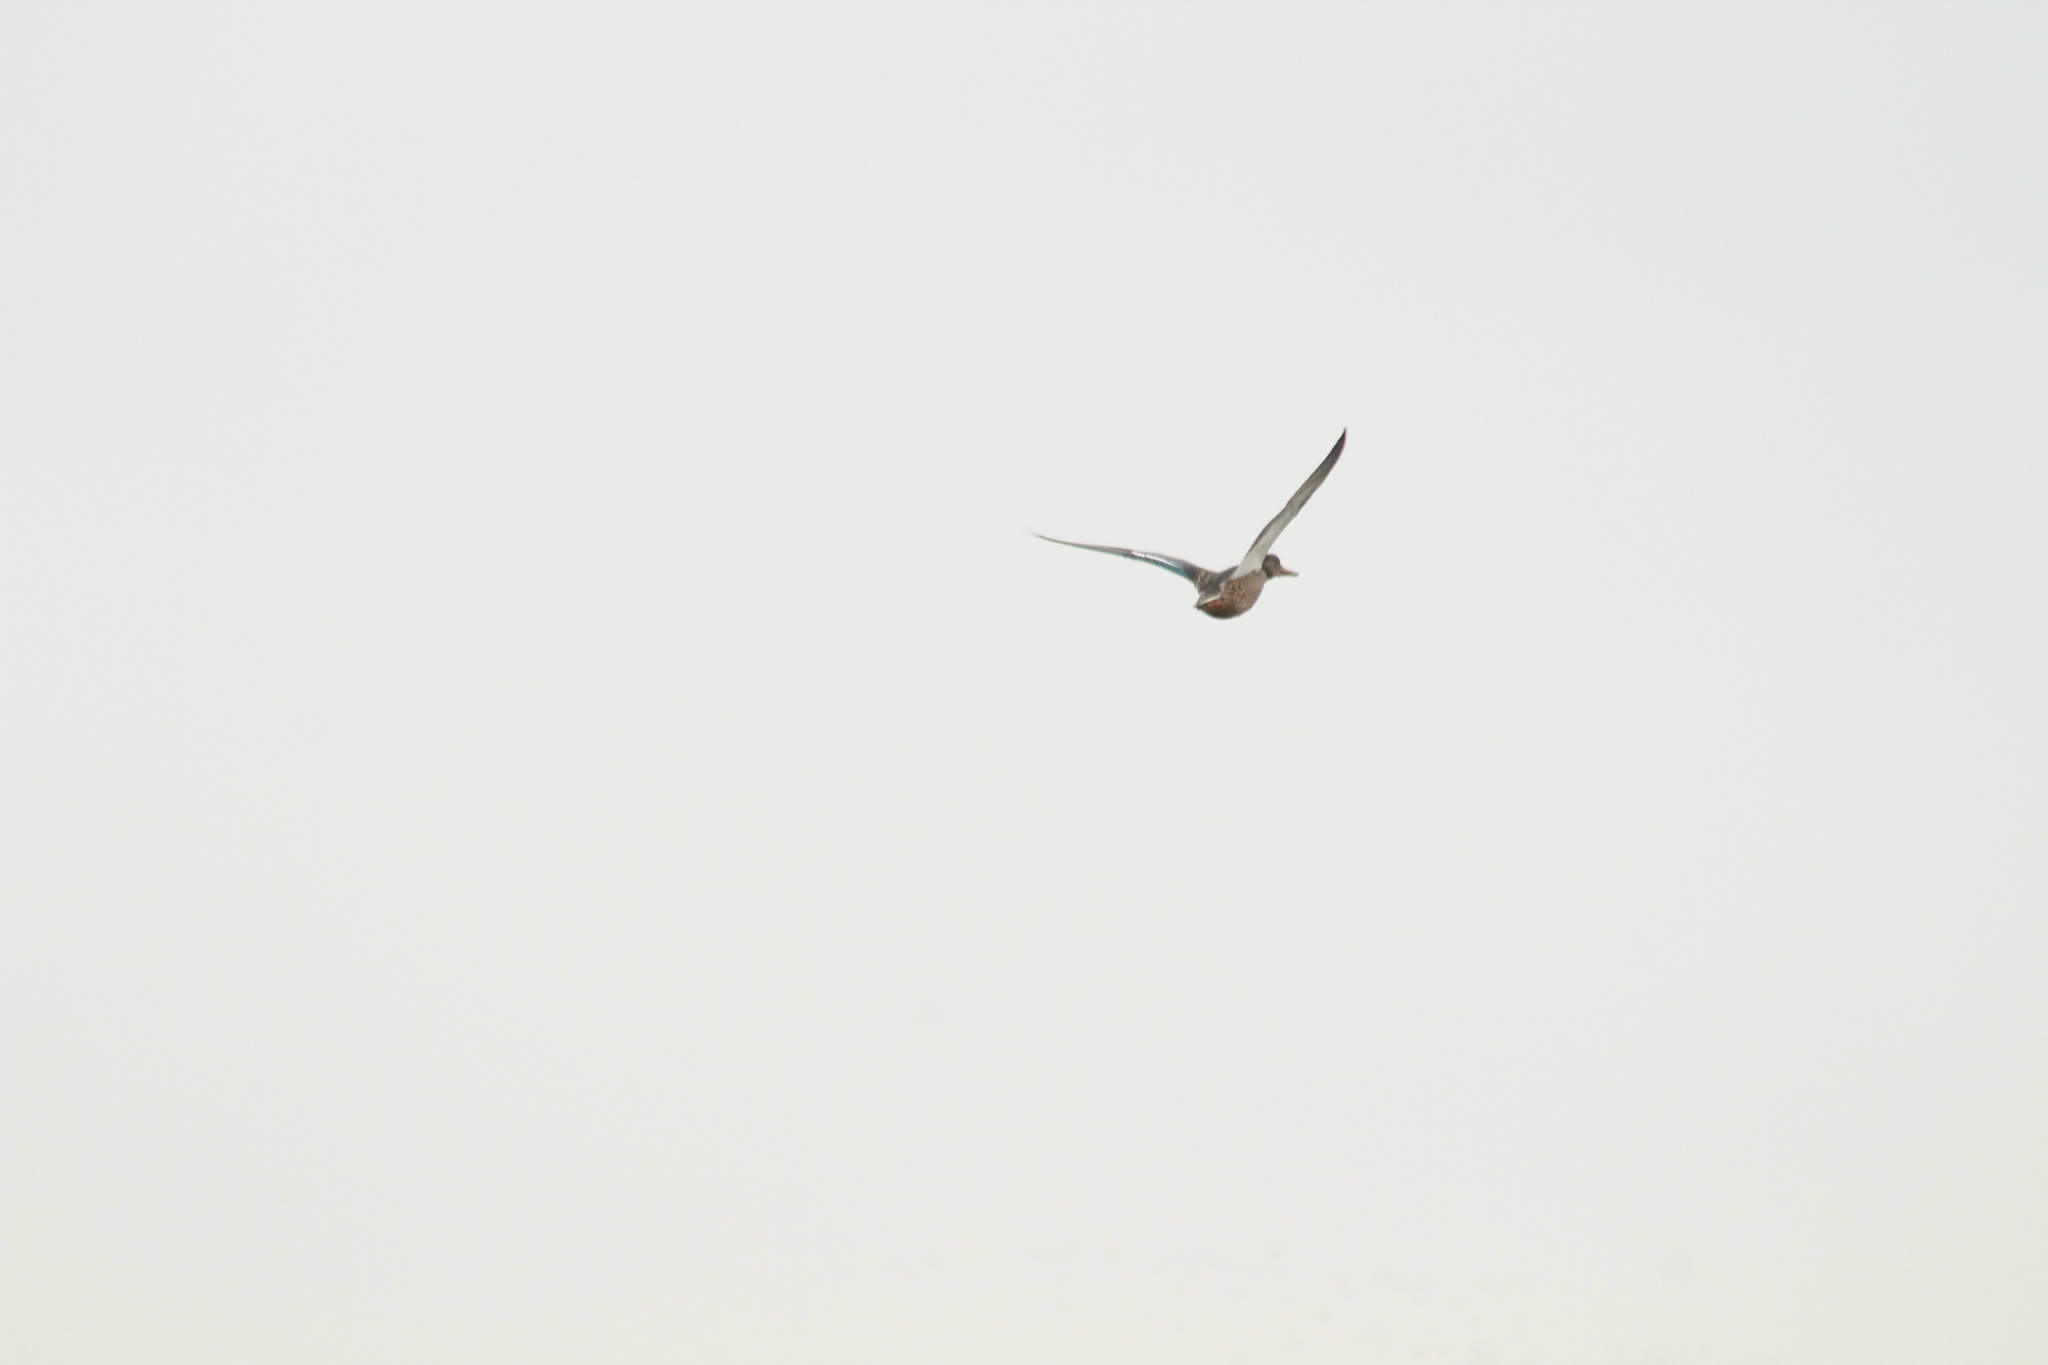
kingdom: Animalia
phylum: Chordata
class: Aves
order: Anseriformes
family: Anatidae
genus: Anas
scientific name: Anas platyrhynchos
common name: Mallard
